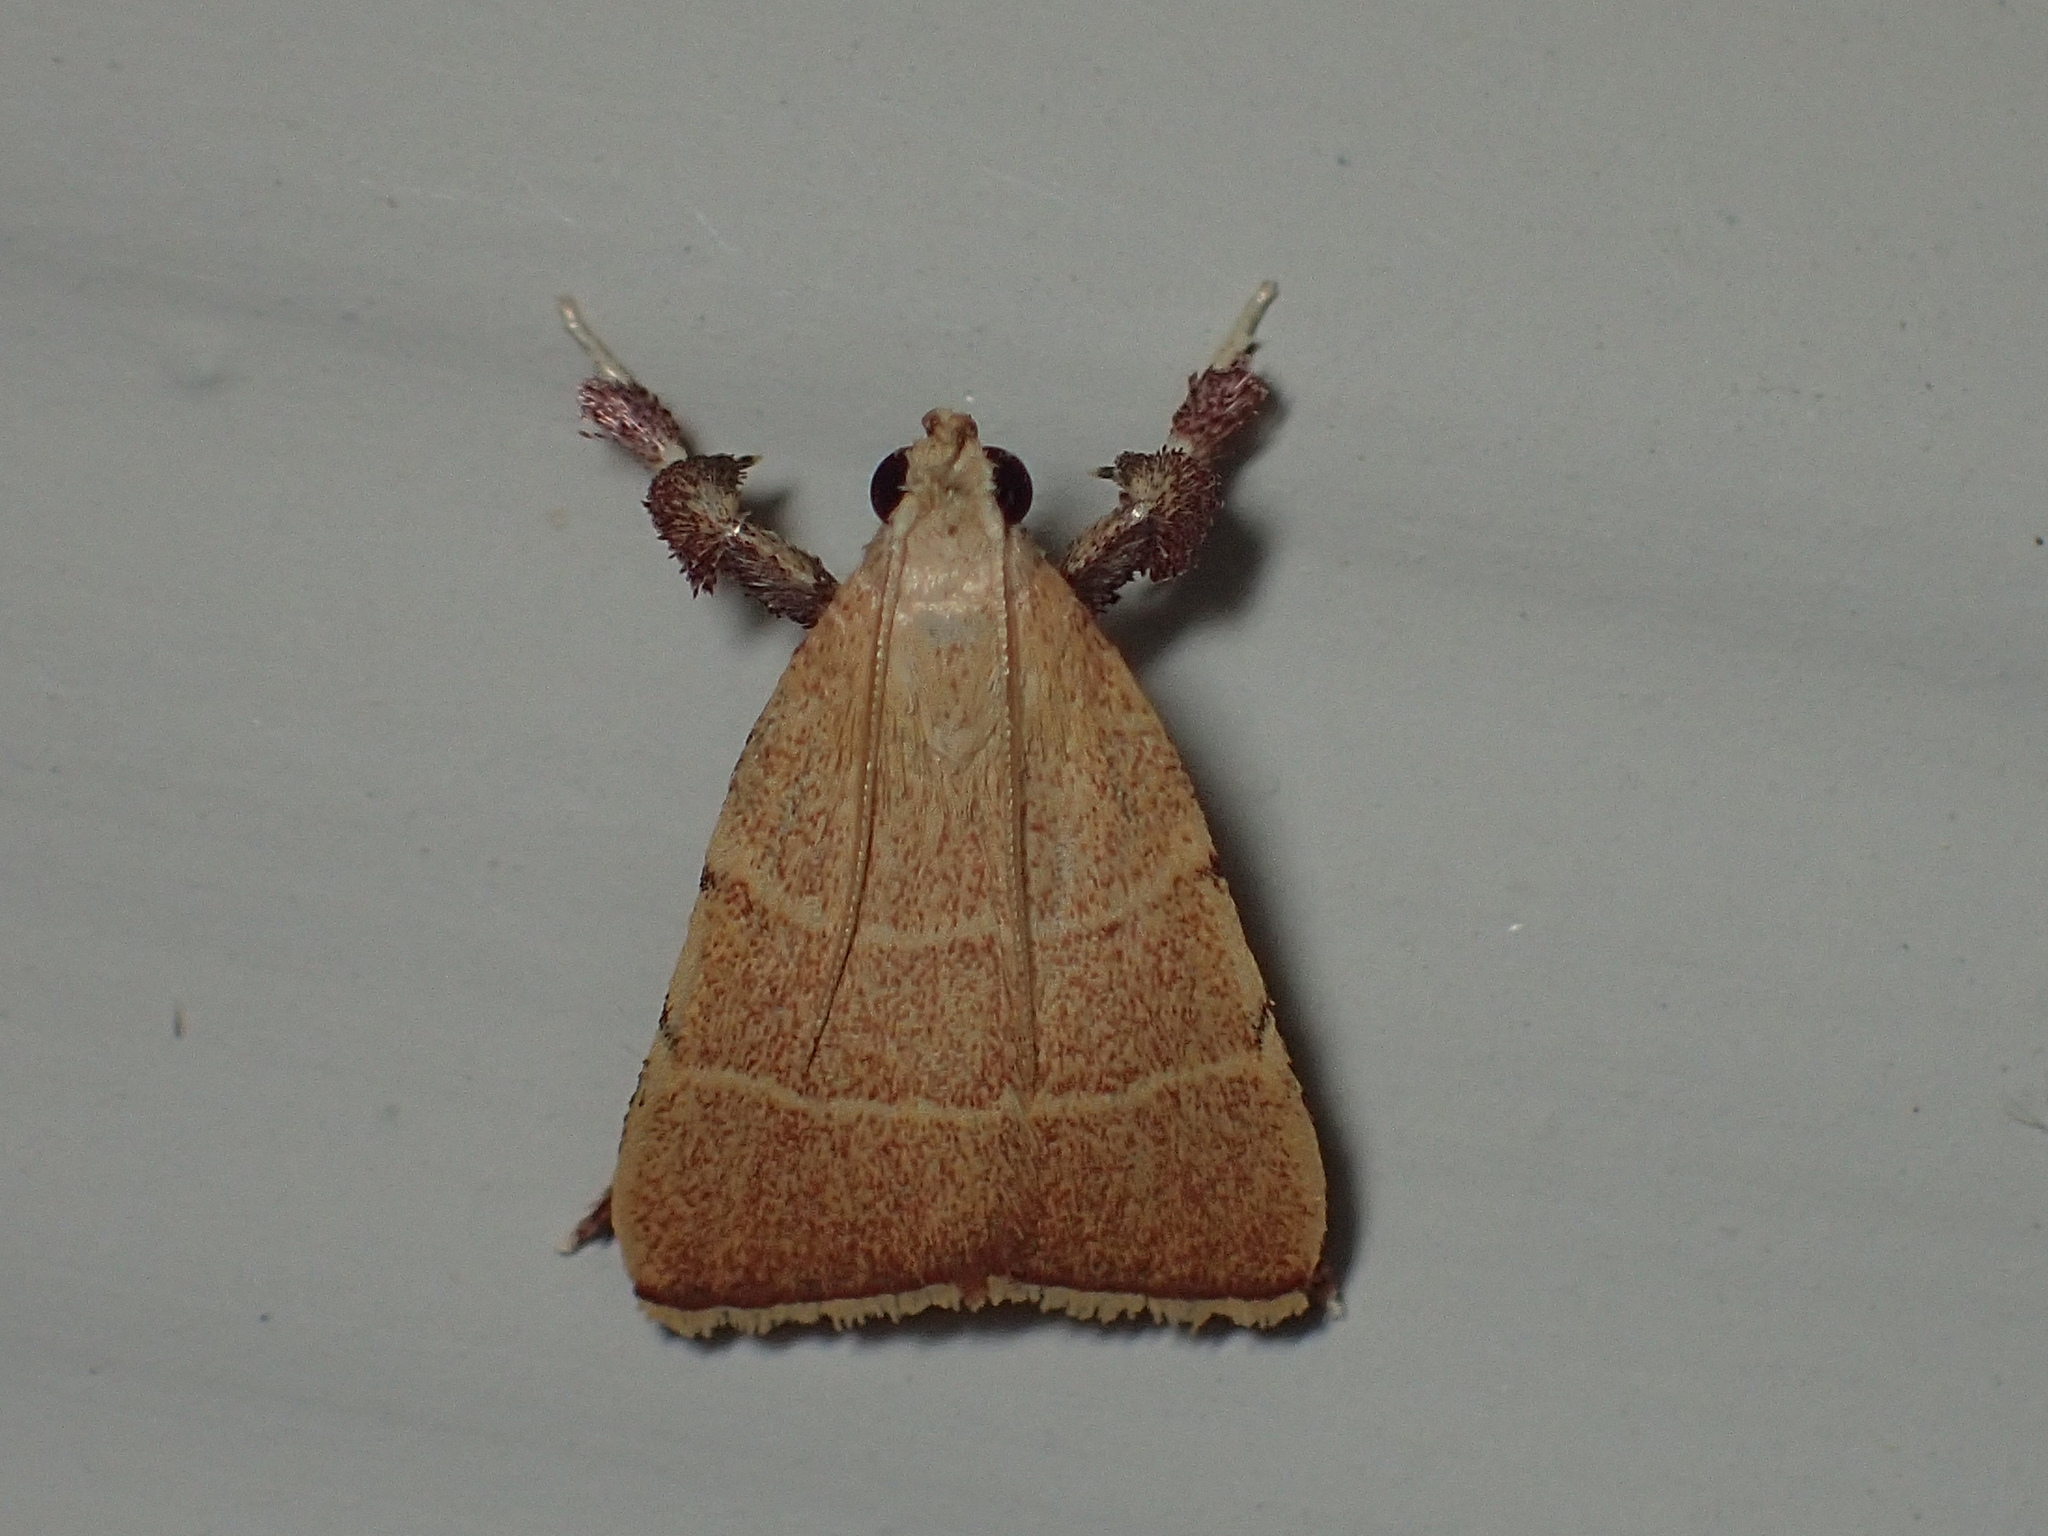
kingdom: Animalia
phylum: Arthropoda
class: Insecta
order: Lepidoptera
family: Pyralidae
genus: Parachma
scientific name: Parachma ochracealis
